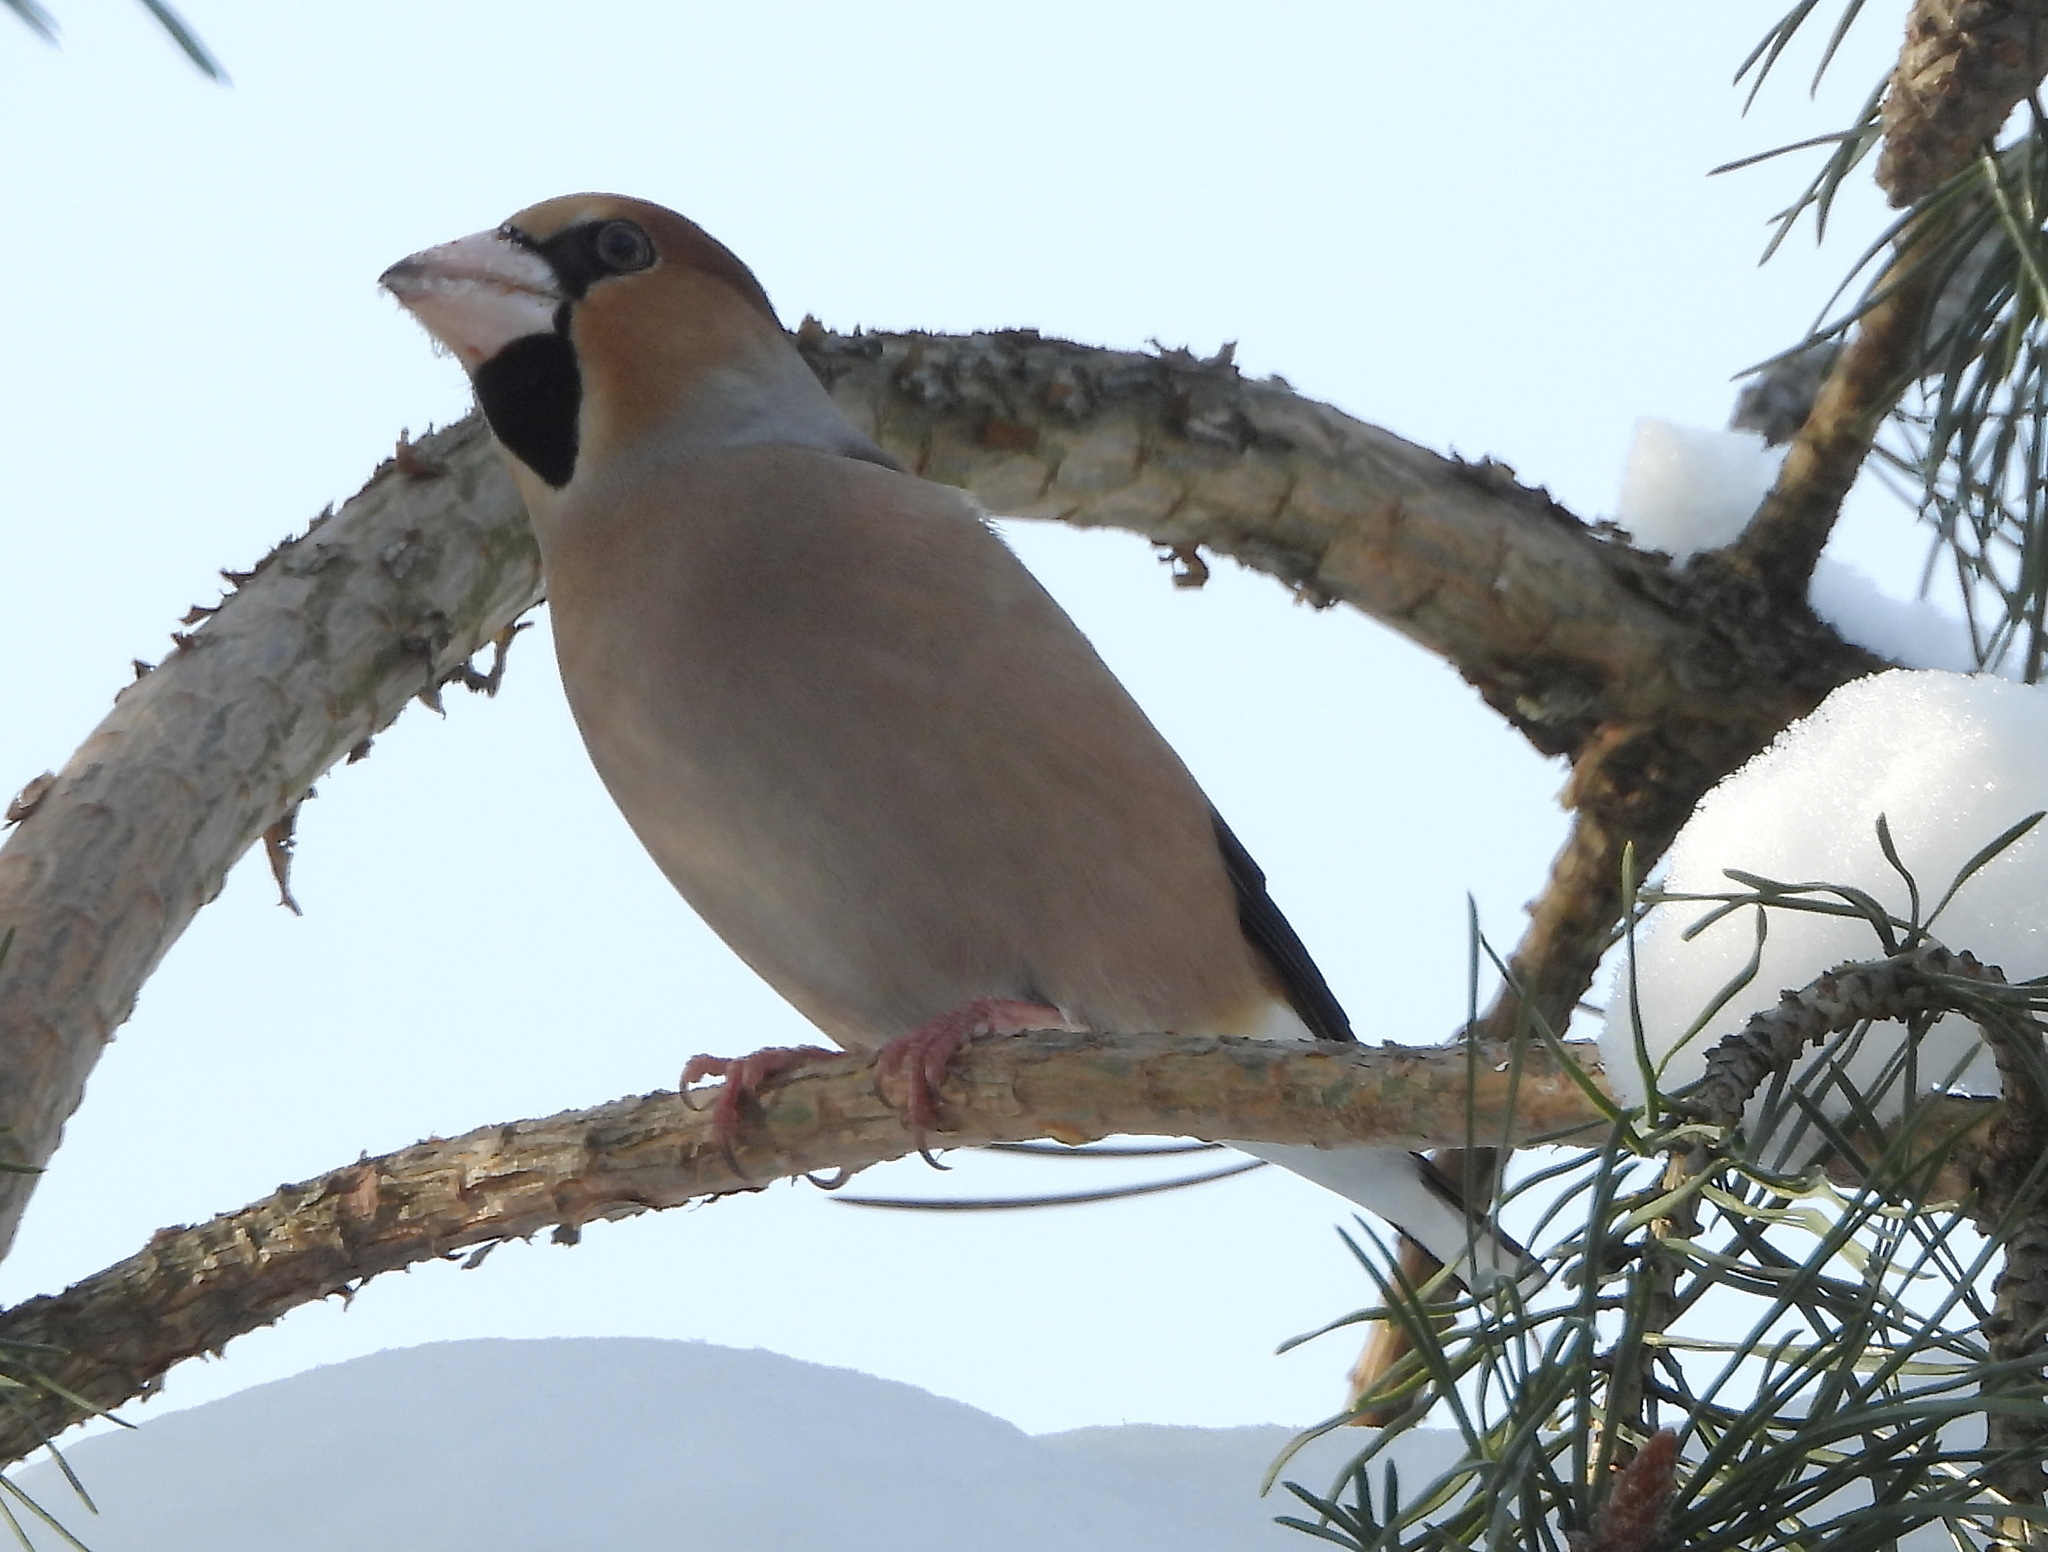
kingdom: Animalia
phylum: Chordata
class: Aves
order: Passeriformes
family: Fringillidae
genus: Coccothraustes
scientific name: Coccothraustes coccothraustes
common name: Hawfinch
